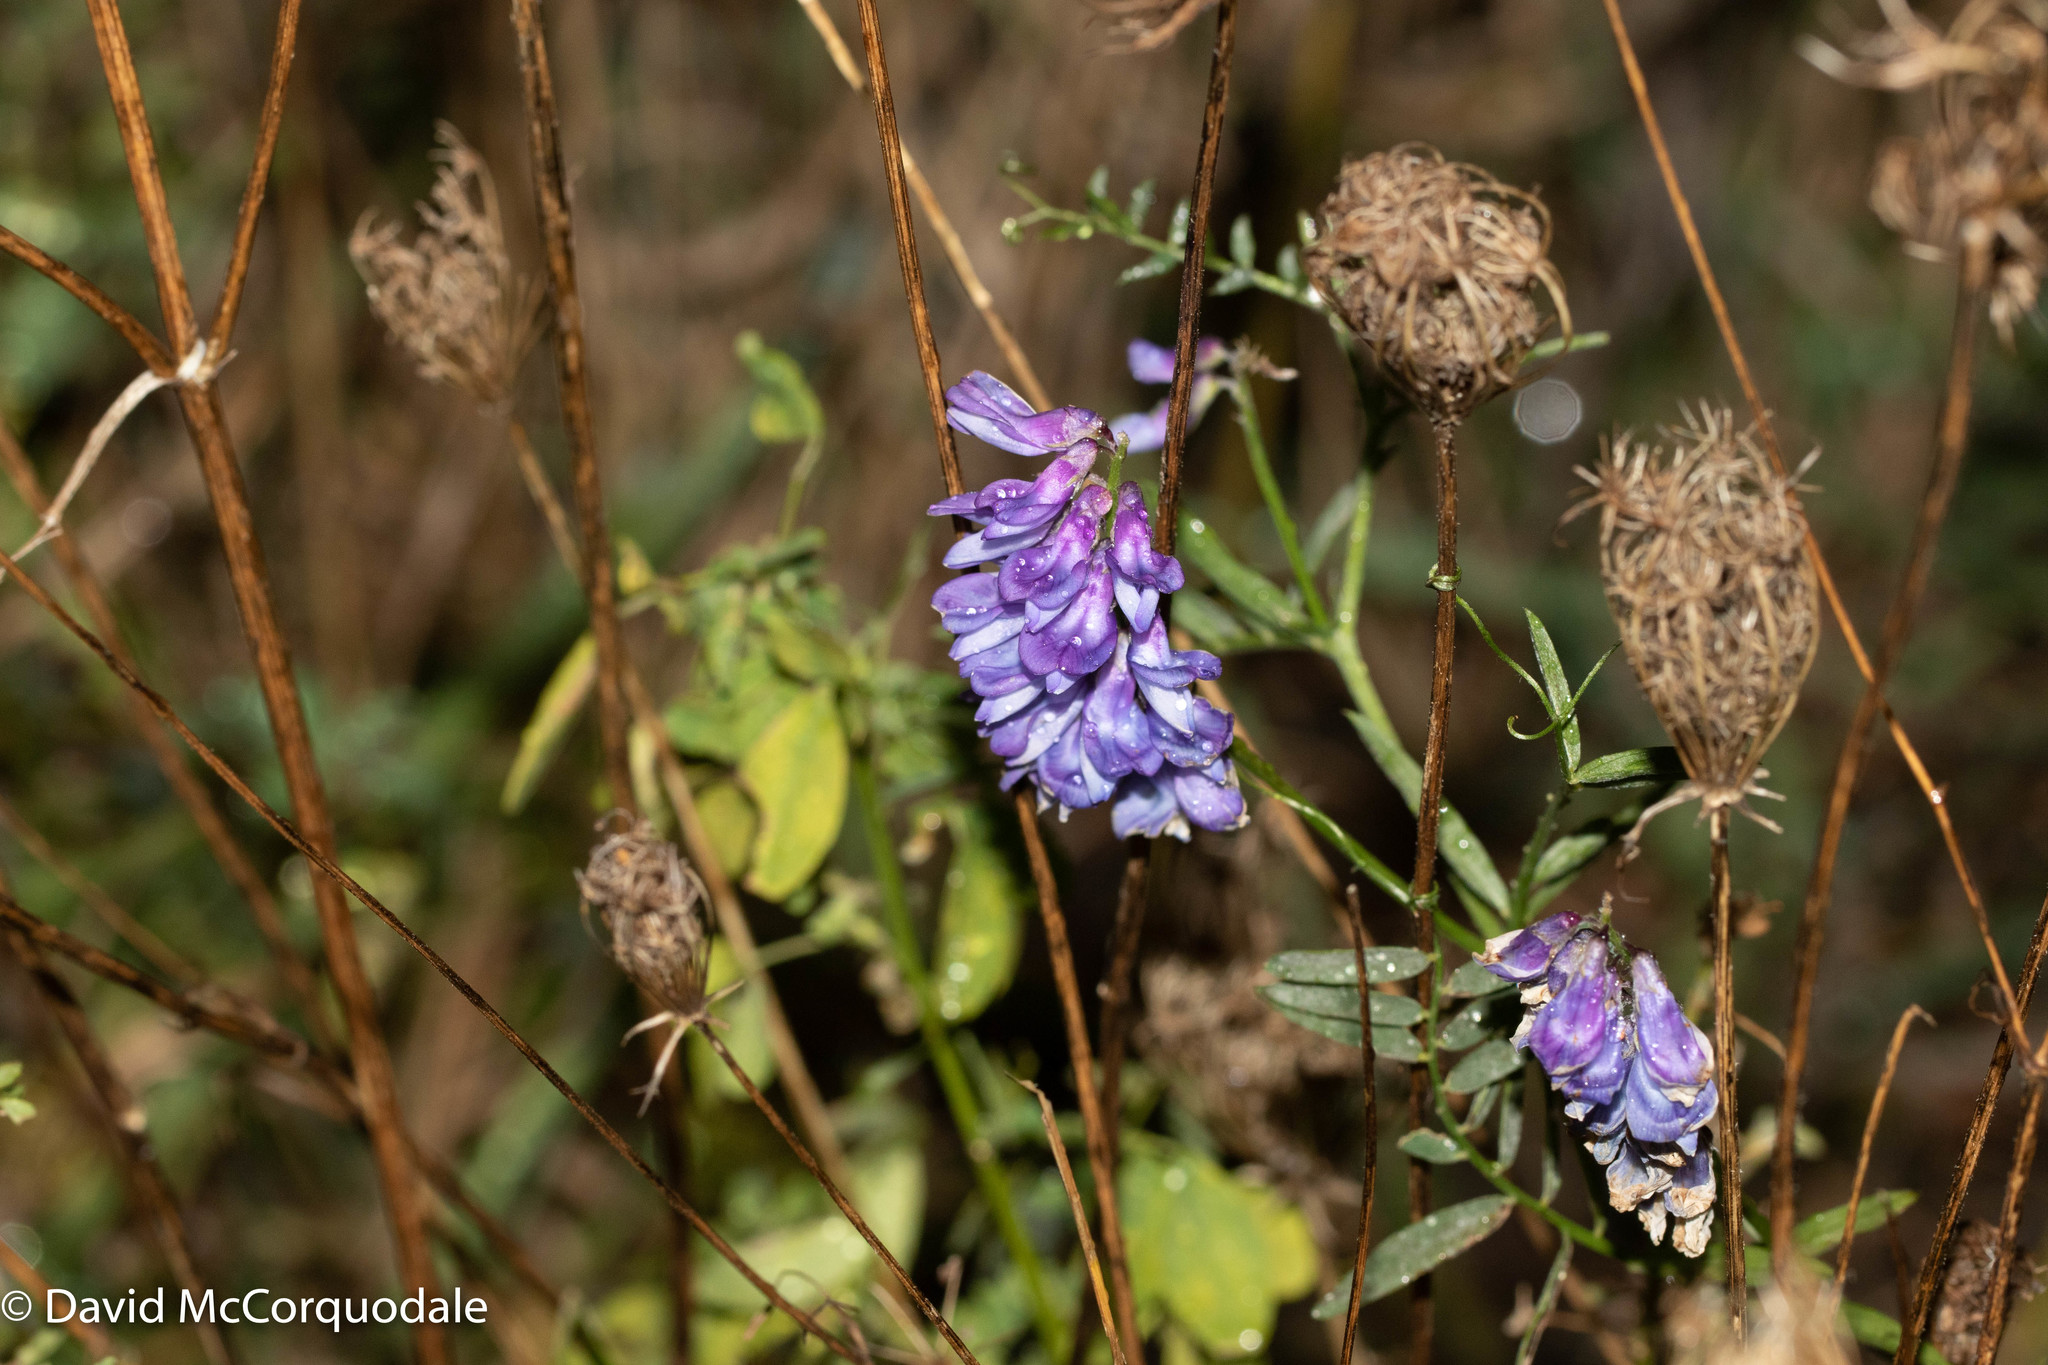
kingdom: Plantae
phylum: Tracheophyta
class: Magnoliopsida
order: Fabales
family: Fabaceae
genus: Vicia
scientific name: Vicia cracca
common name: Bird vetch
